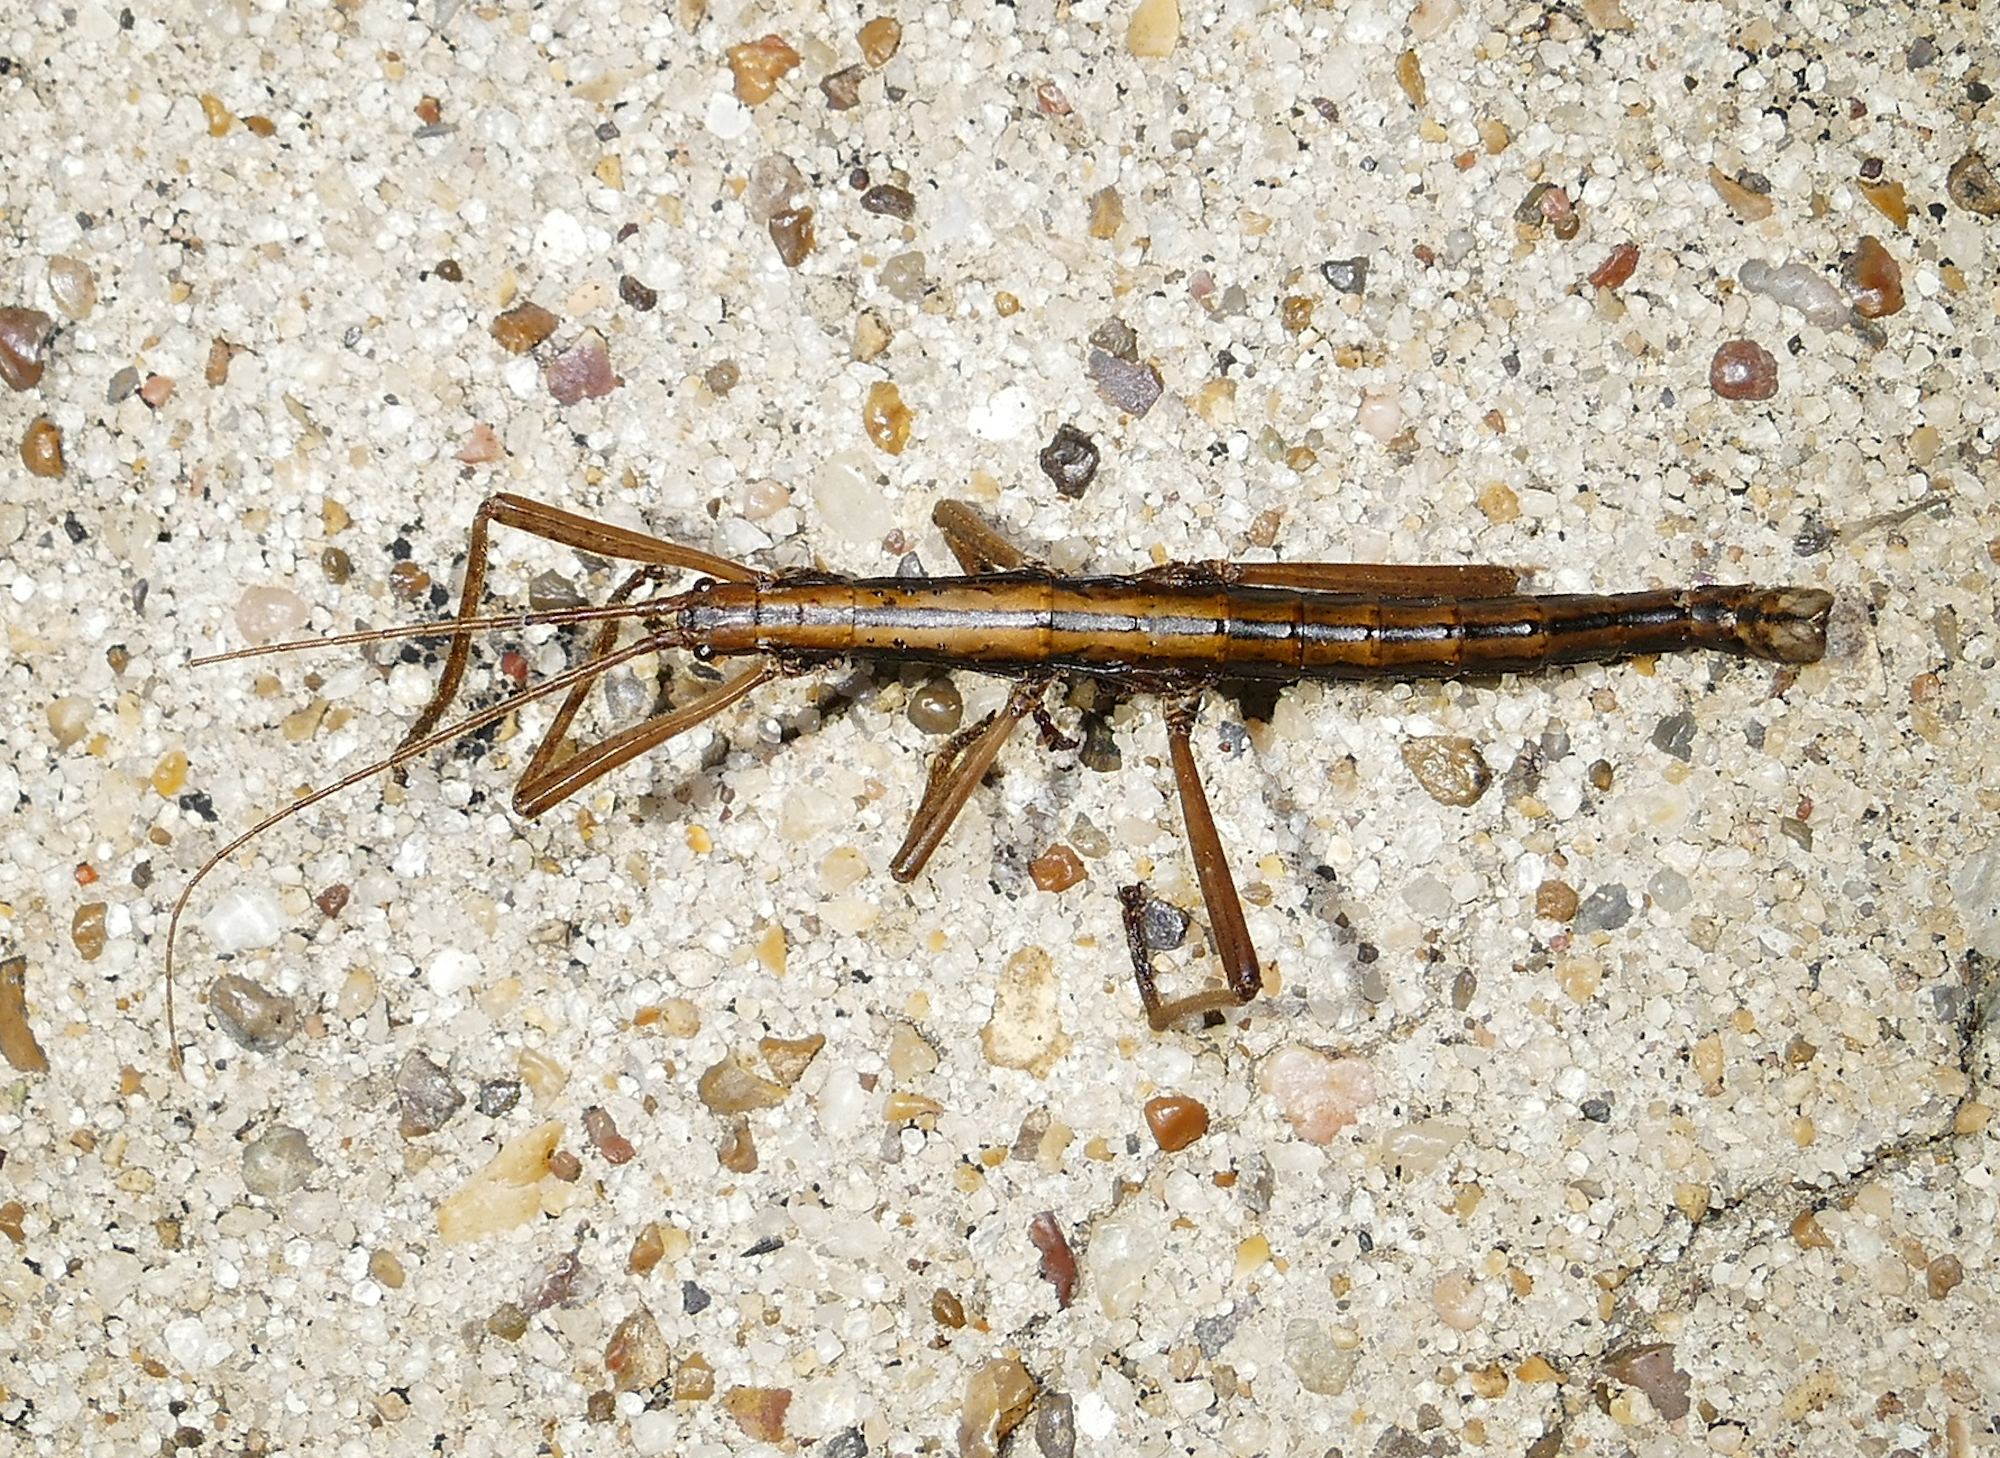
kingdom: Animalia
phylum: Arthropoda
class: Insecta
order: Phasmida
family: Pseudophasmatidae
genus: Anisomorpha
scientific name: Anisomorpha ferruginea
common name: Dark walkingstick
